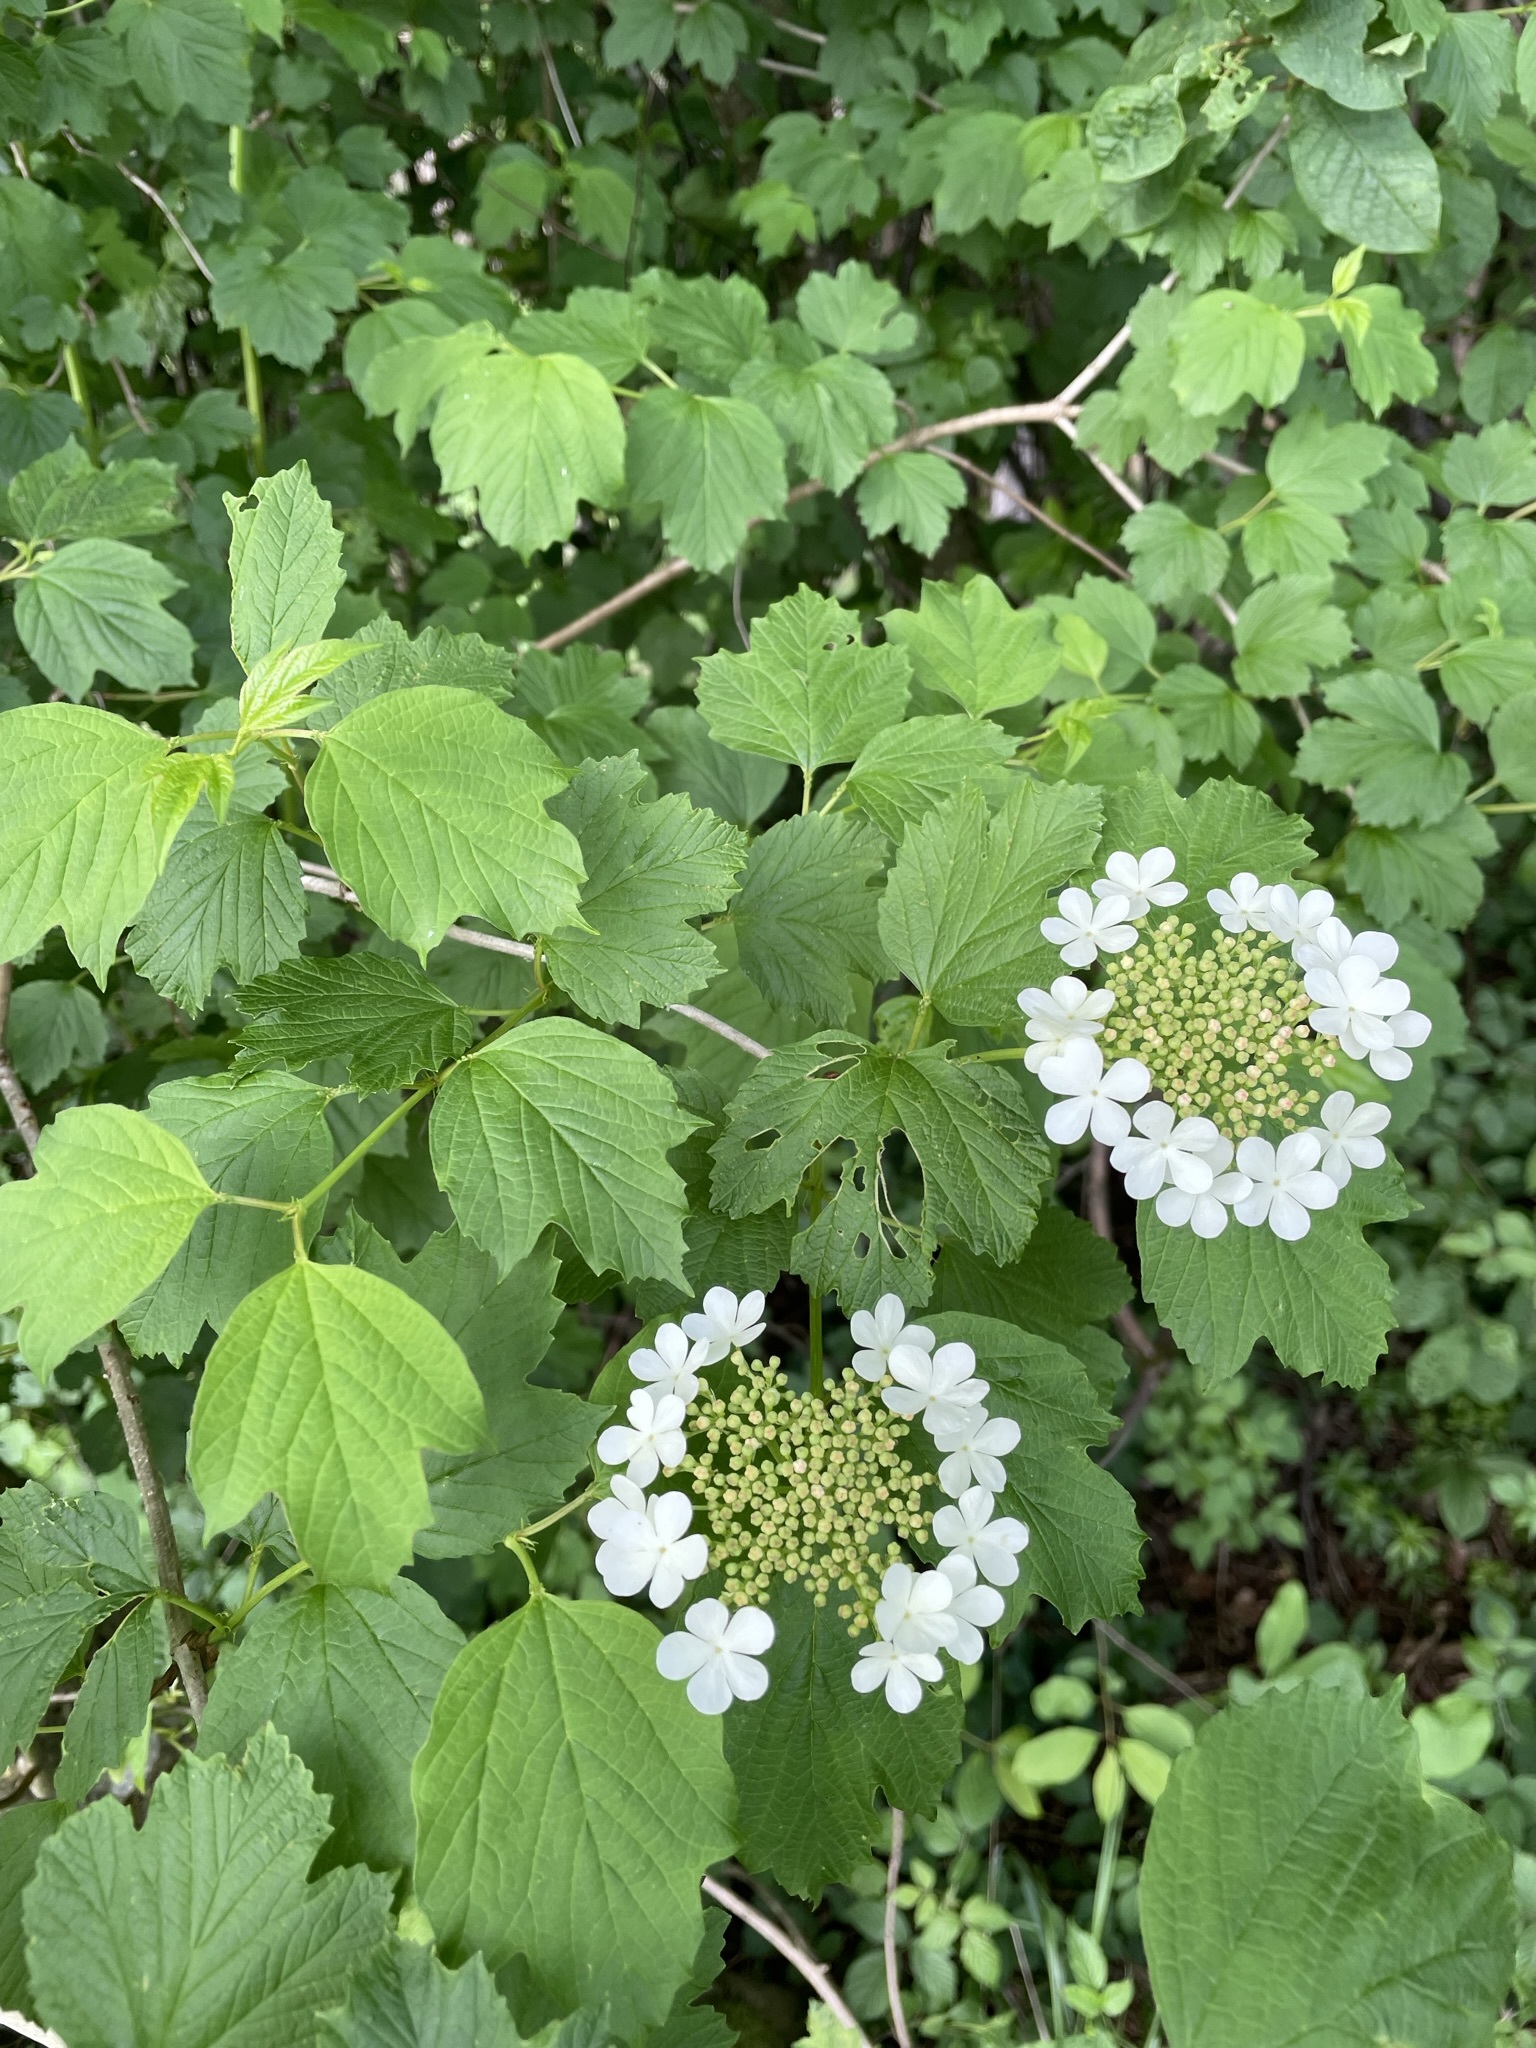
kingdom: Plantae
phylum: Tracheophyta
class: Magnoliopsida
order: Dipsacales
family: Viburnaceae
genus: Viburnum
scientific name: Viburnum opulus
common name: Guelder-rose
